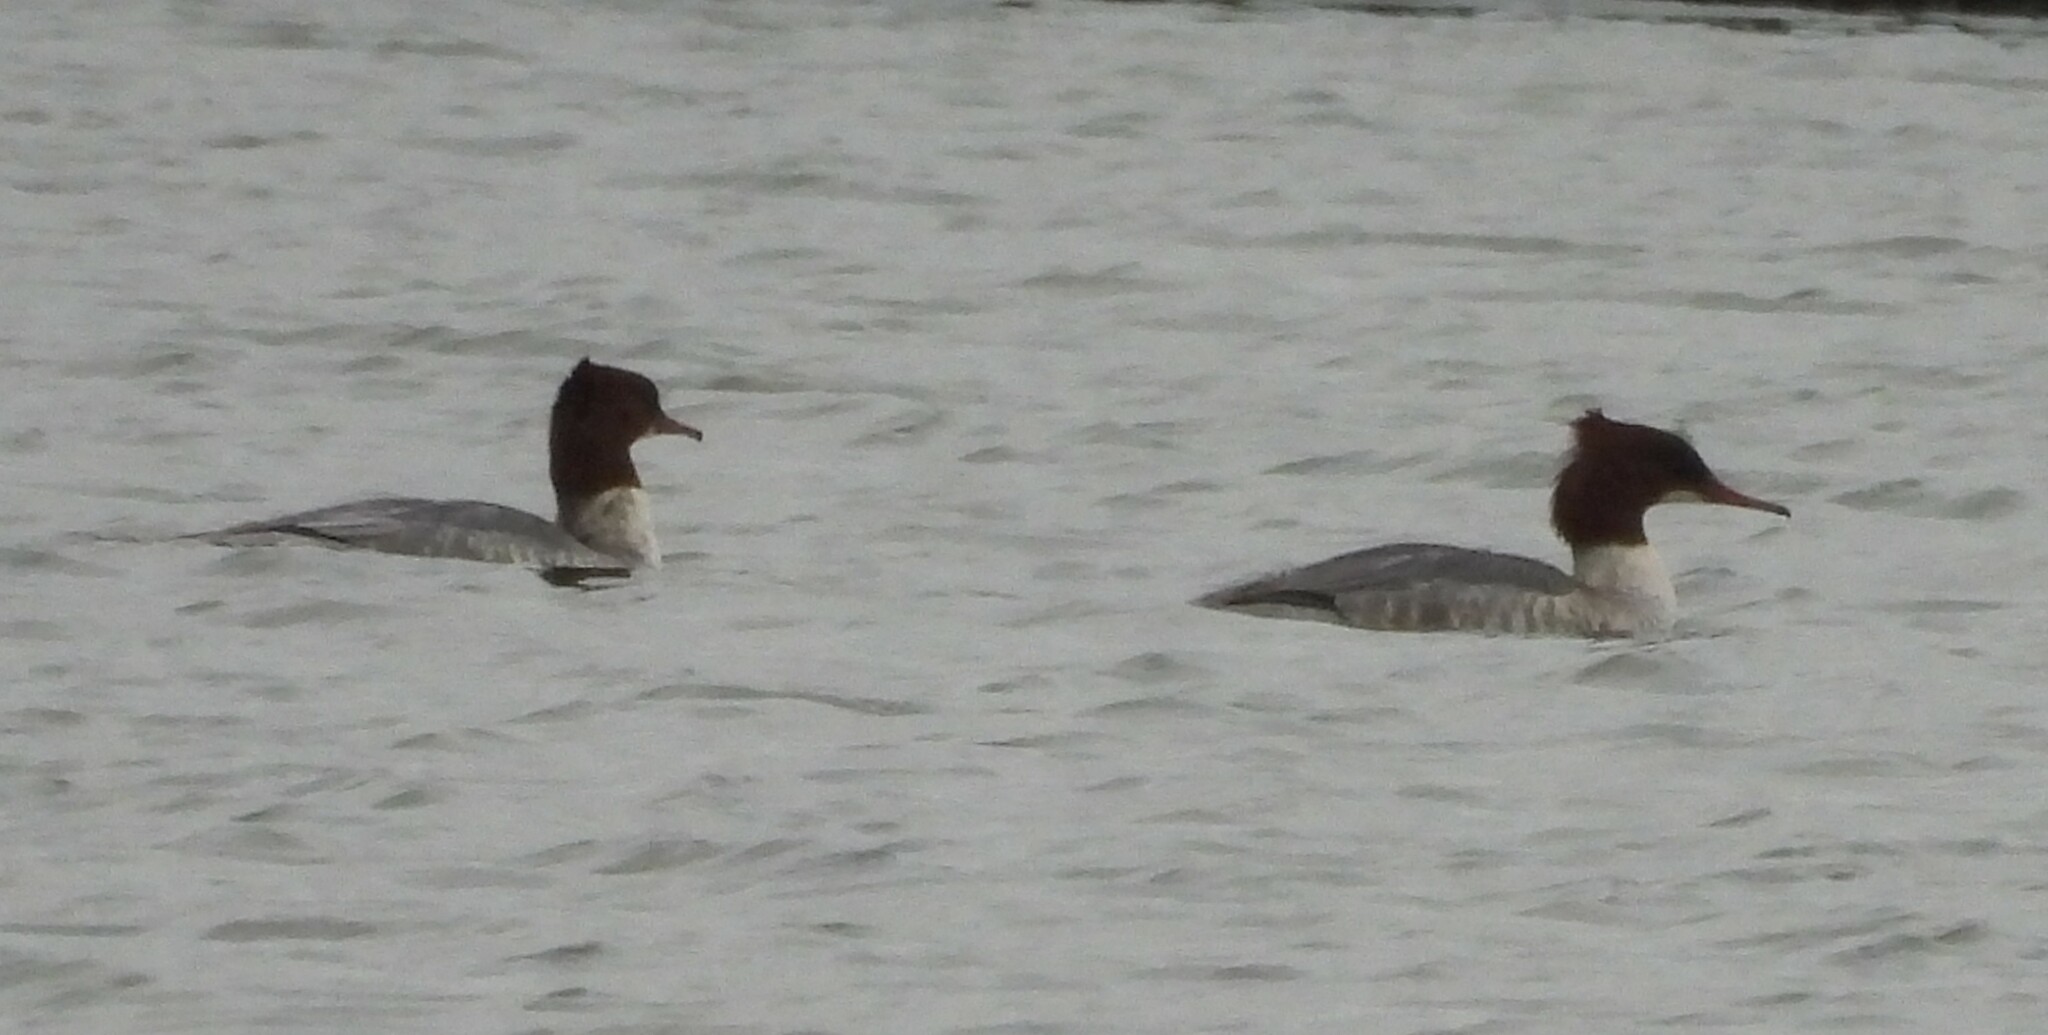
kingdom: Animalia
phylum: Chordata
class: Aves
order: Anseriformes
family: Anatidae
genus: Mergus
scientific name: Mergus merganser
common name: Common merganser
